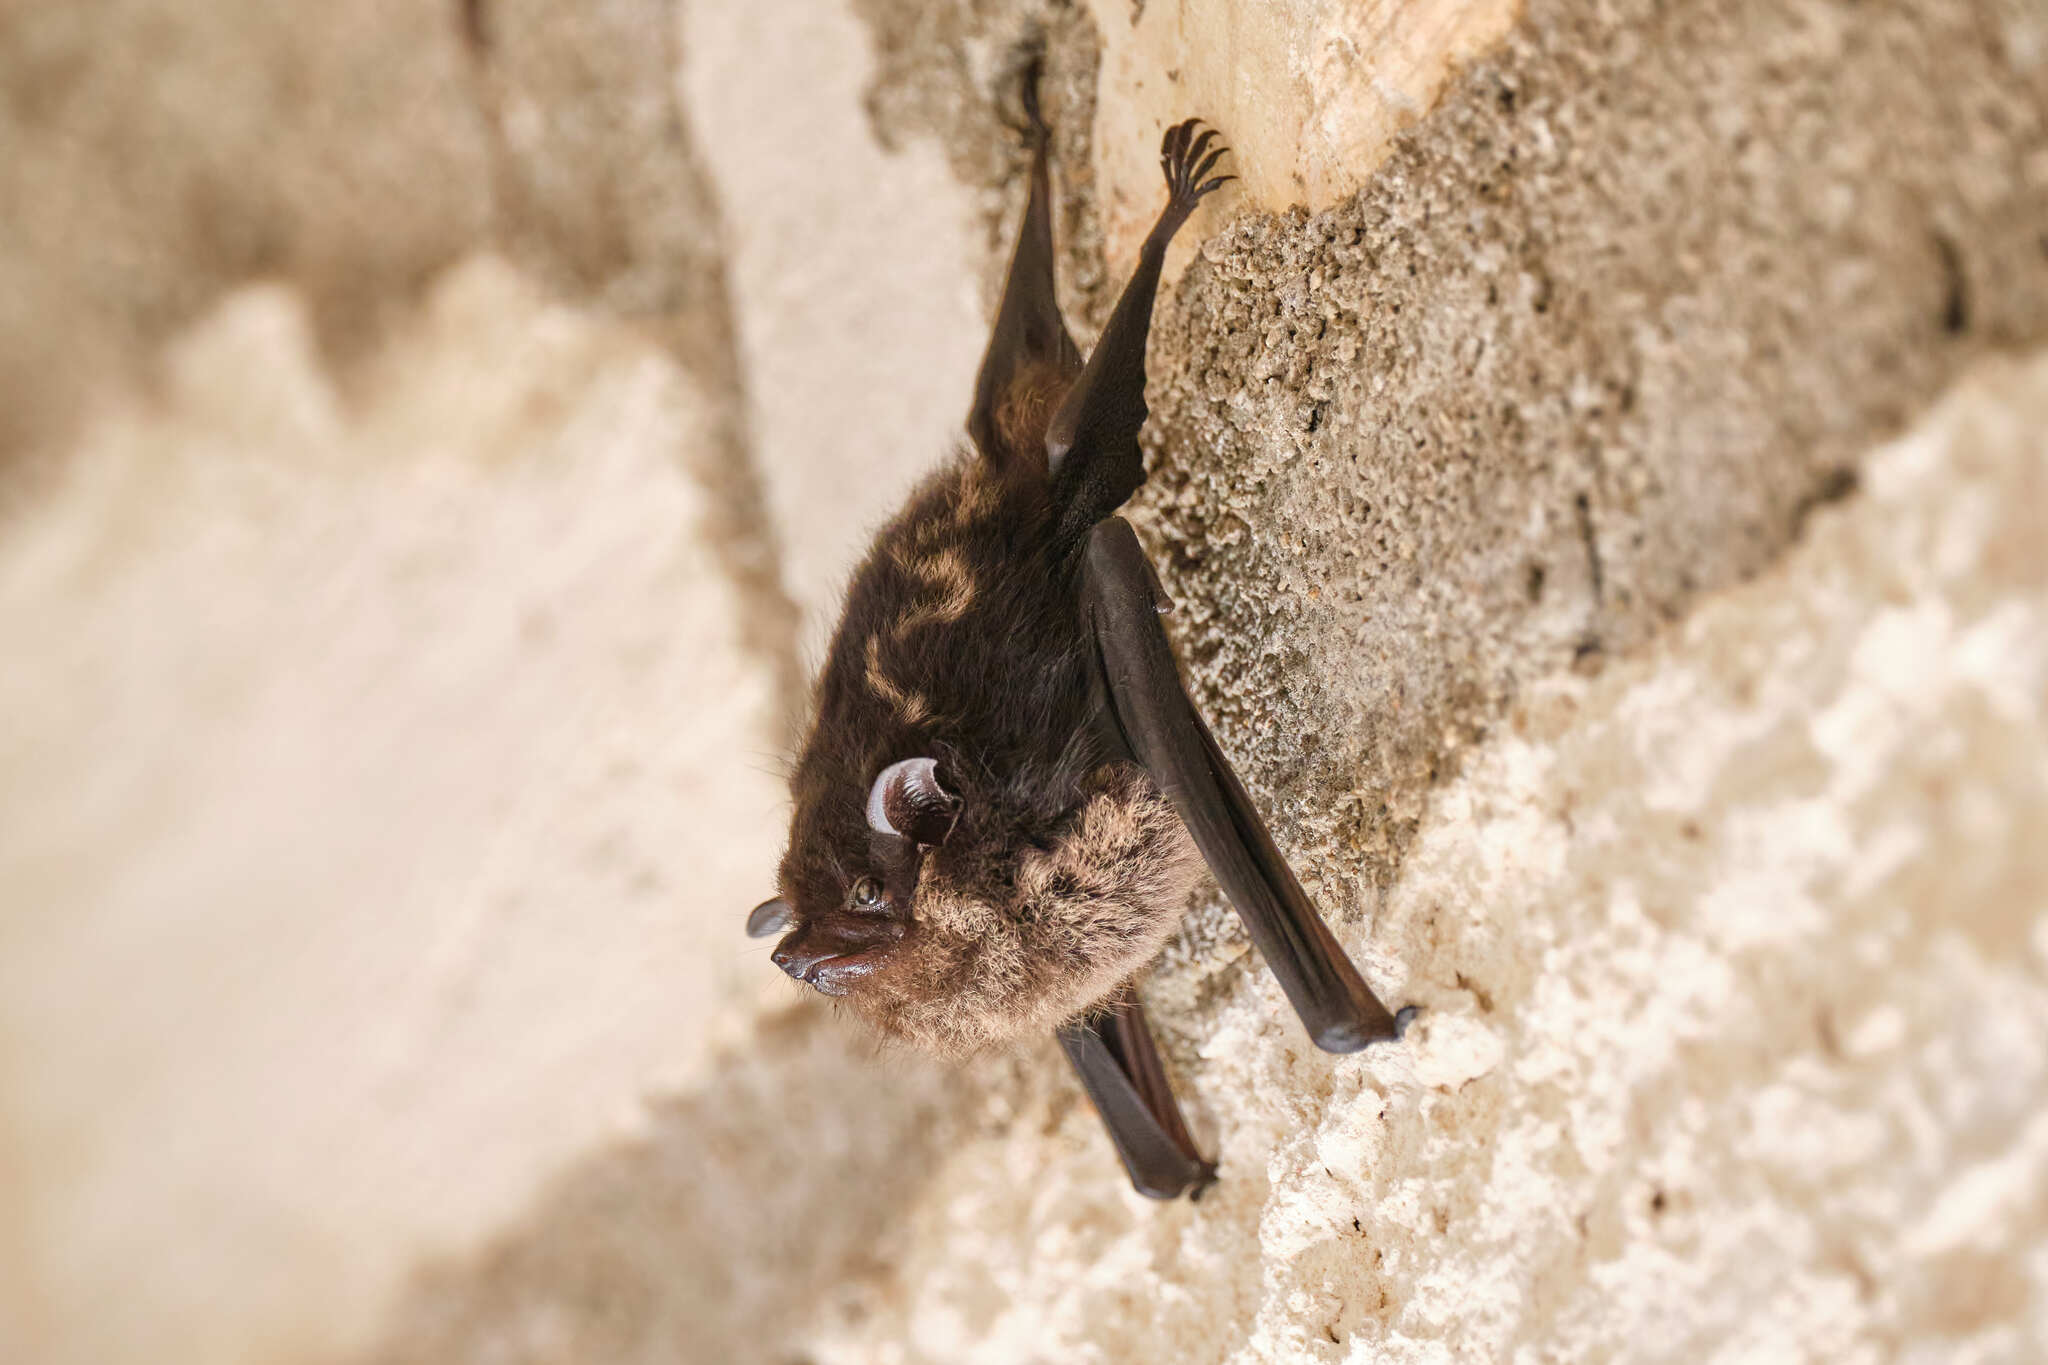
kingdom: Animalia
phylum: Chordata
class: Mammalia
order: Chiroptera
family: Emballonuridae
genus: Saccopteryx
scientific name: Saccopteryx bilineata
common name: Greater sac-winged bat
